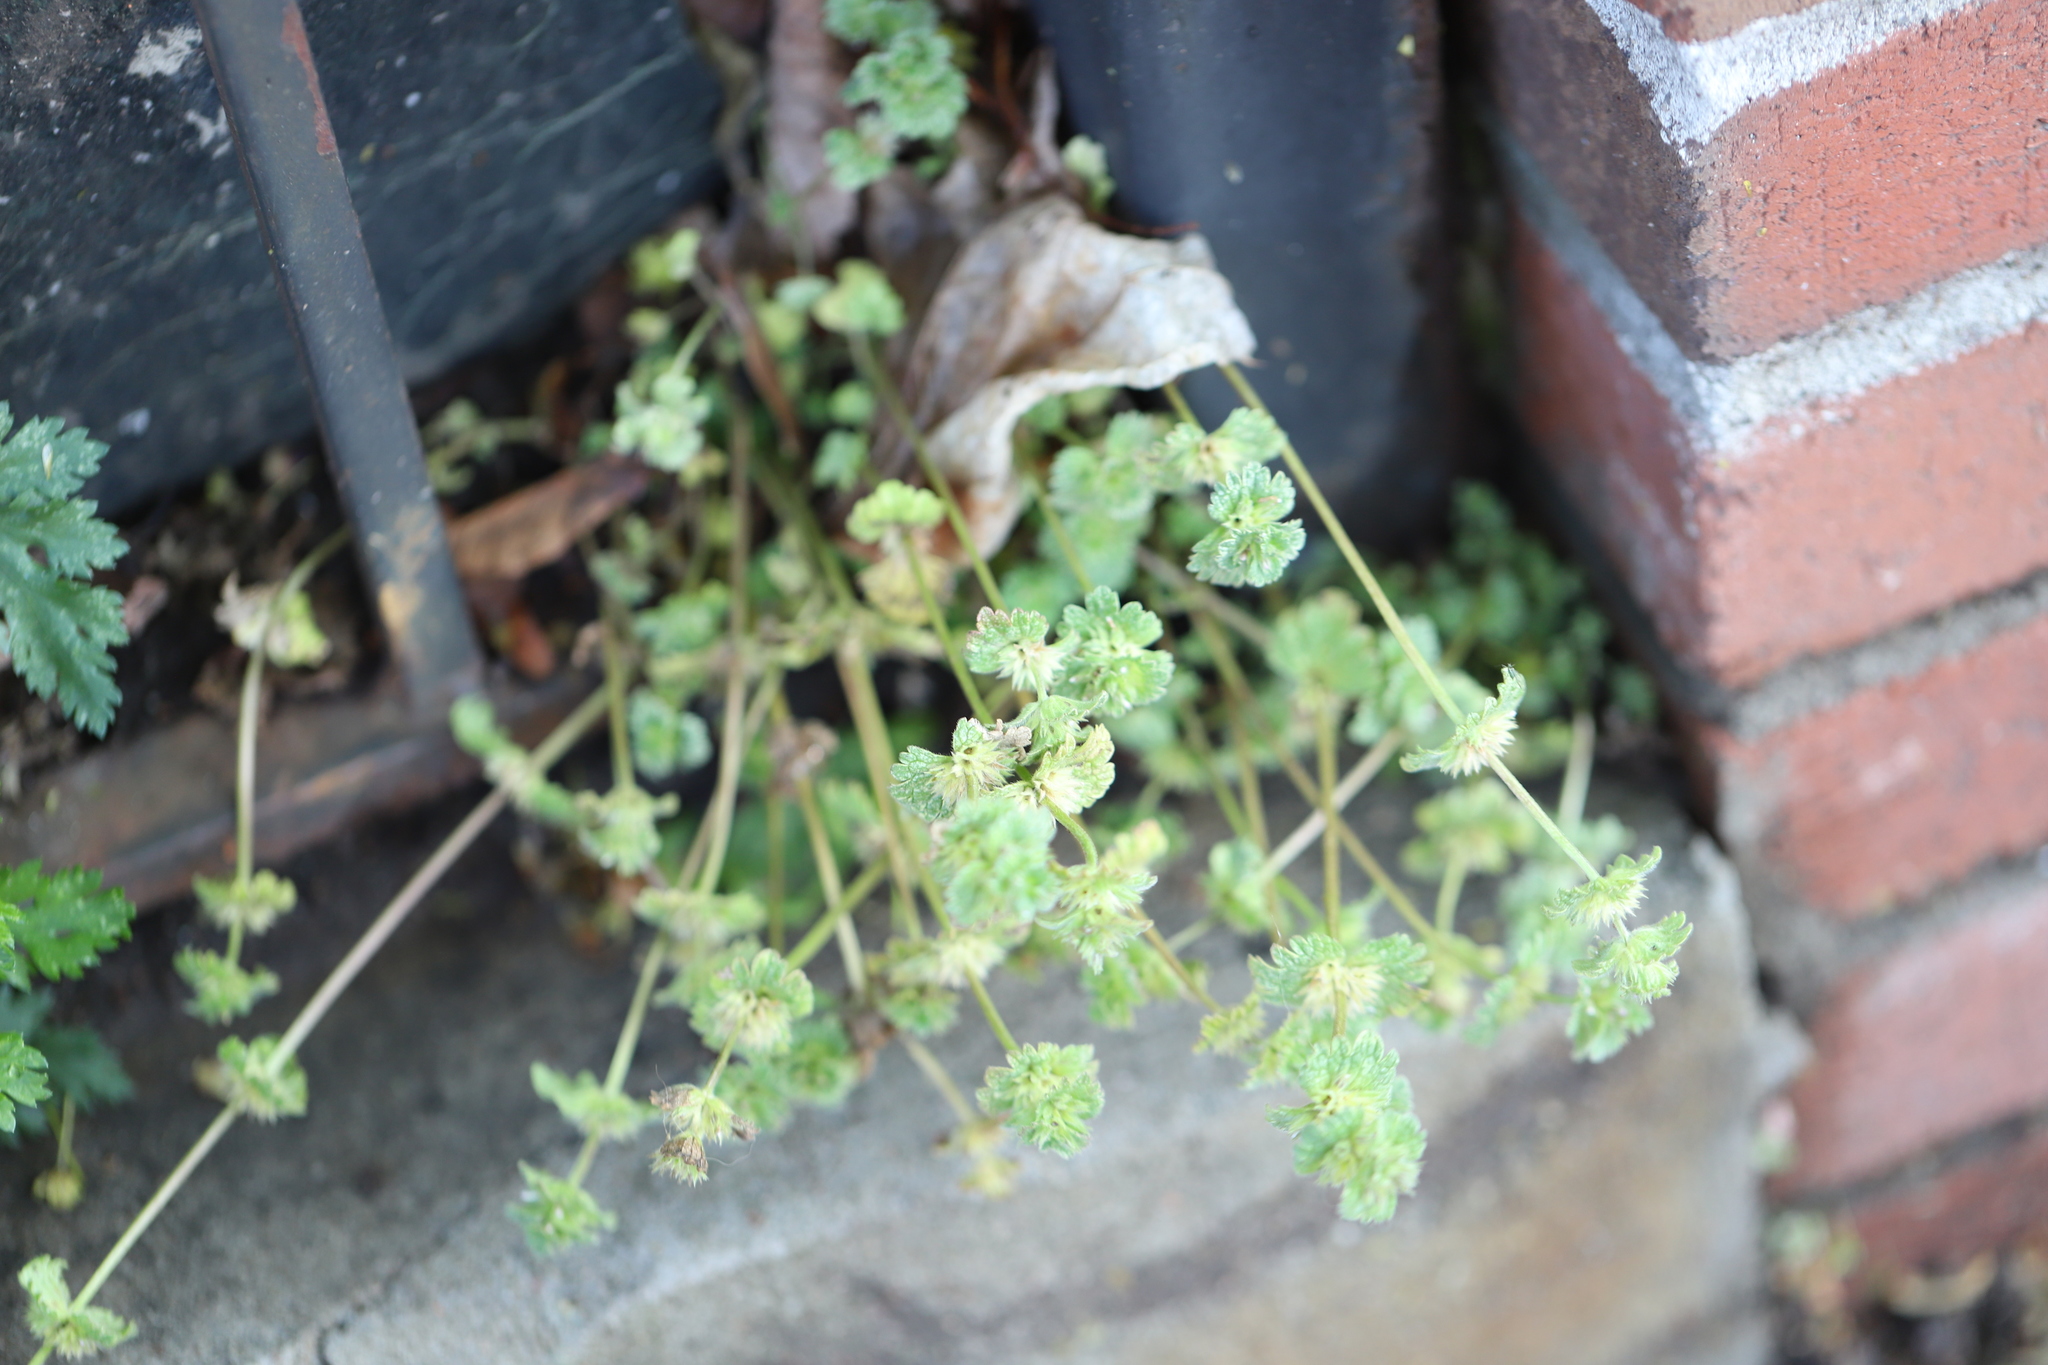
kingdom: Plantae
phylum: Tracheophyta
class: Magnoliopsida
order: Lamiales
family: Lamiaceae
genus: Lamium
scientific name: Lamium amplexicaule
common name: Henbit dead-nettle
